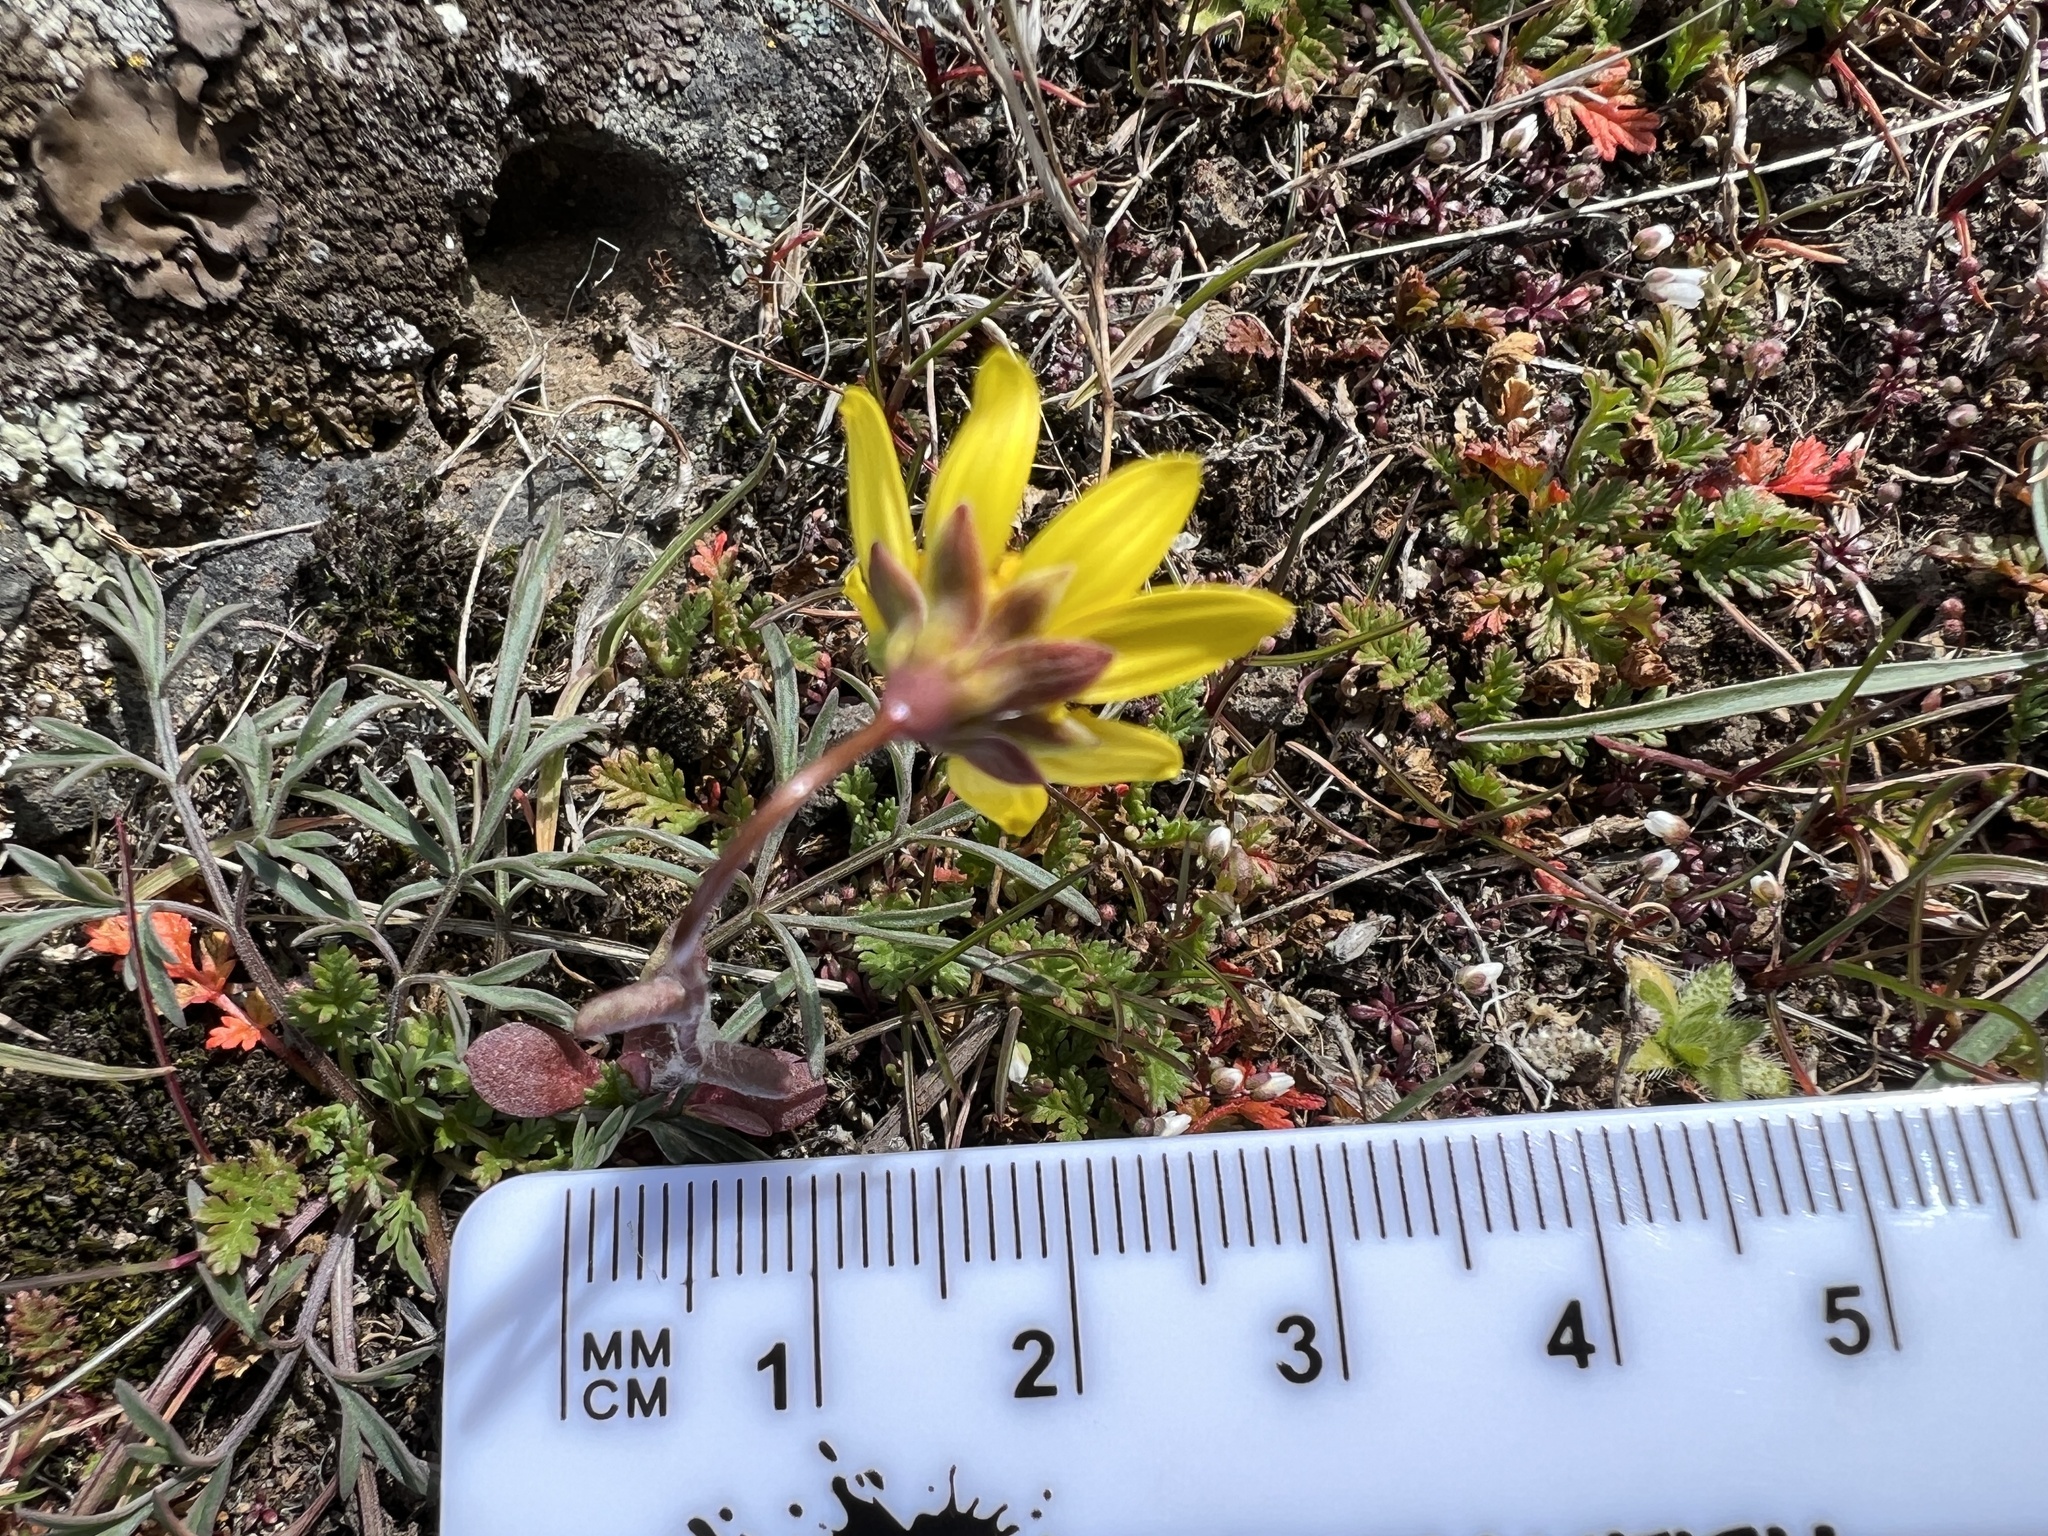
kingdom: Plantae
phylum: Tracheophyta
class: Magnoliopsida
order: Asterales
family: Asteraceae
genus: Crocidium
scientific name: Crocidium multicaule
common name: Common spring gold
